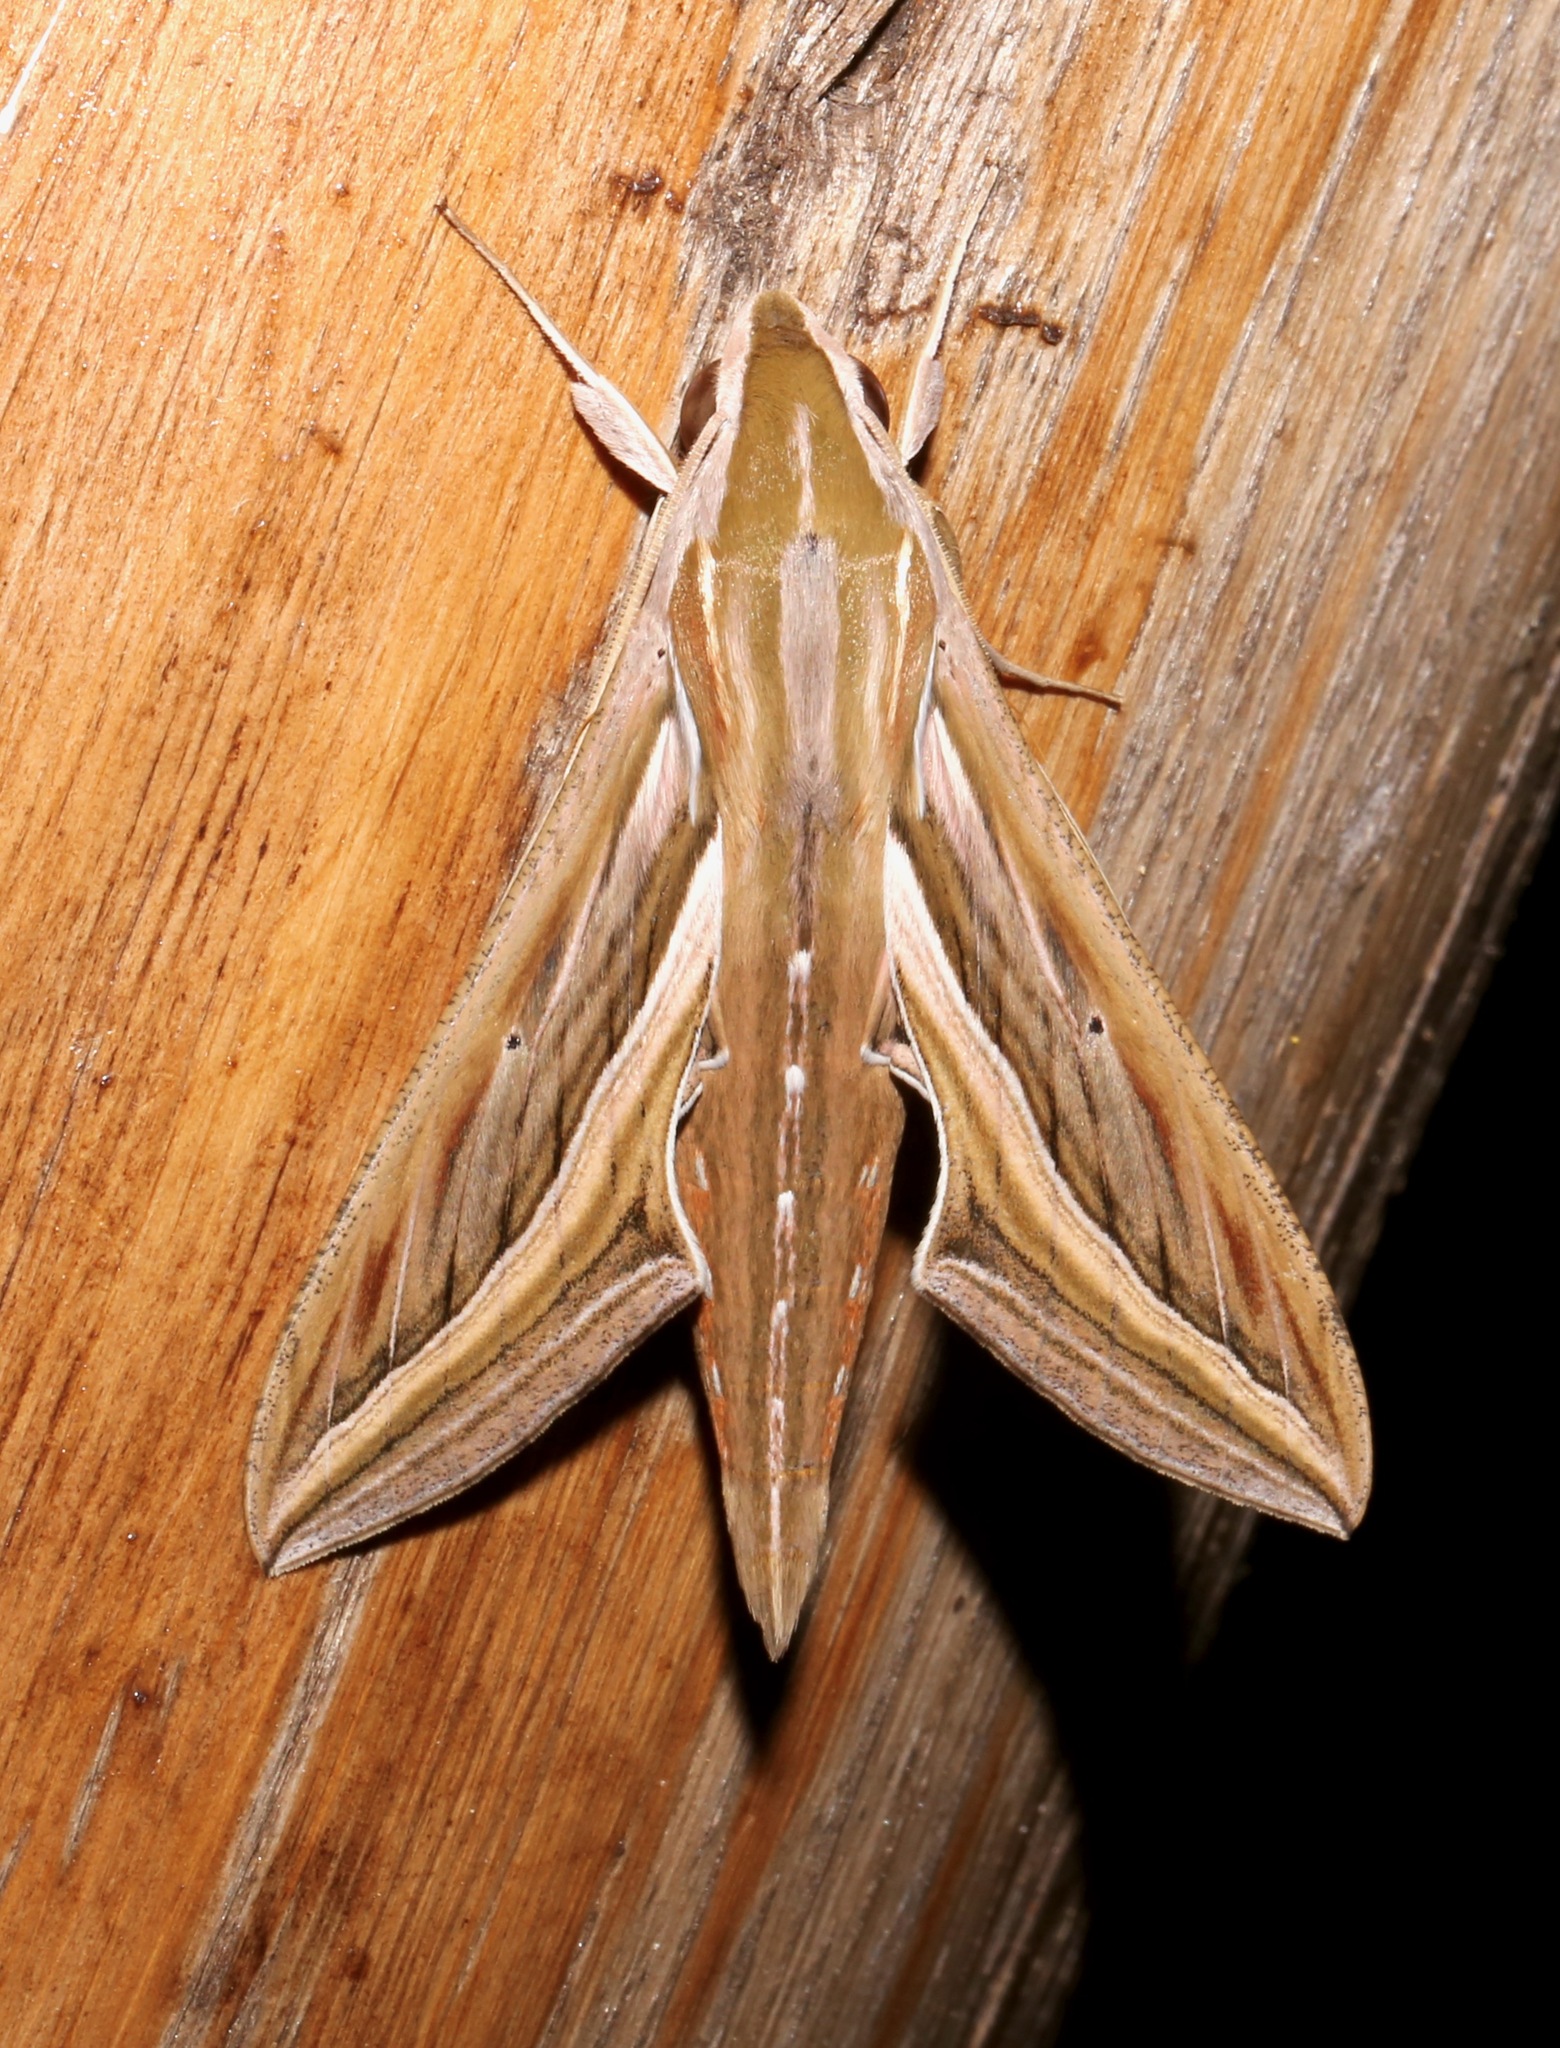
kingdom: Animalia
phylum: Arthropoda
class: Insecta
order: Lepidoptera
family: Sphingidae
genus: Hippotion
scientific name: Hippotion celerio
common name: Silver-striped hawk-moth
